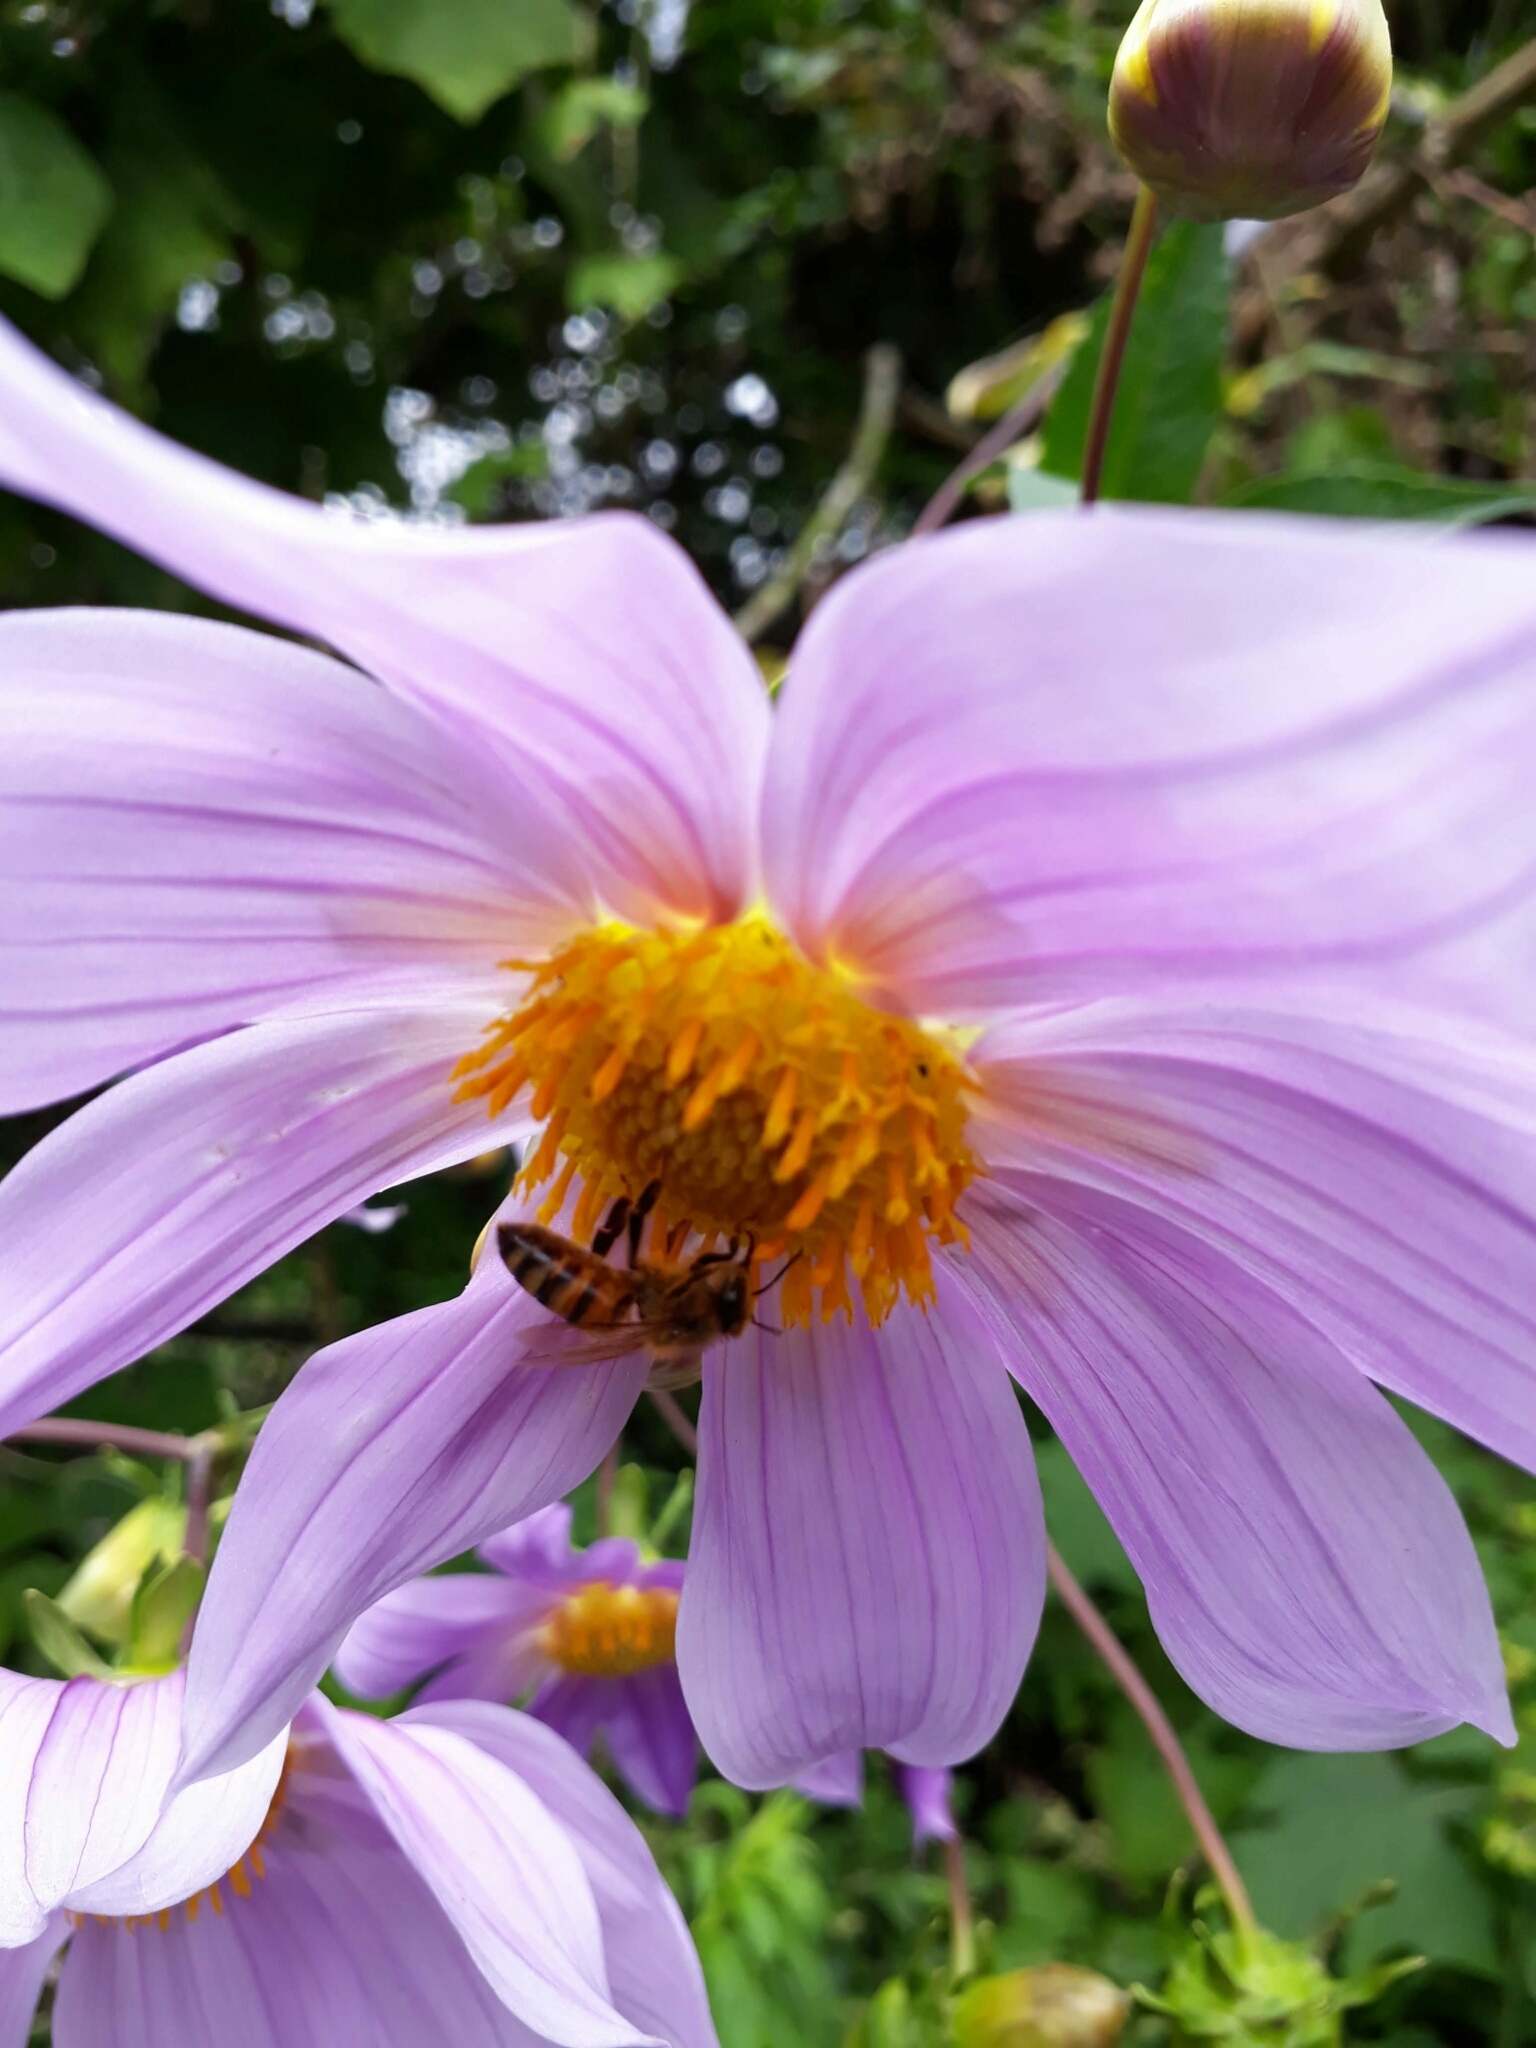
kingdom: Plantae
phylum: Tracheophyta
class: Magnoliopsida
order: Asterales
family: Asteraceae
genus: Dahlia
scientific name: Dahlia imperialis
